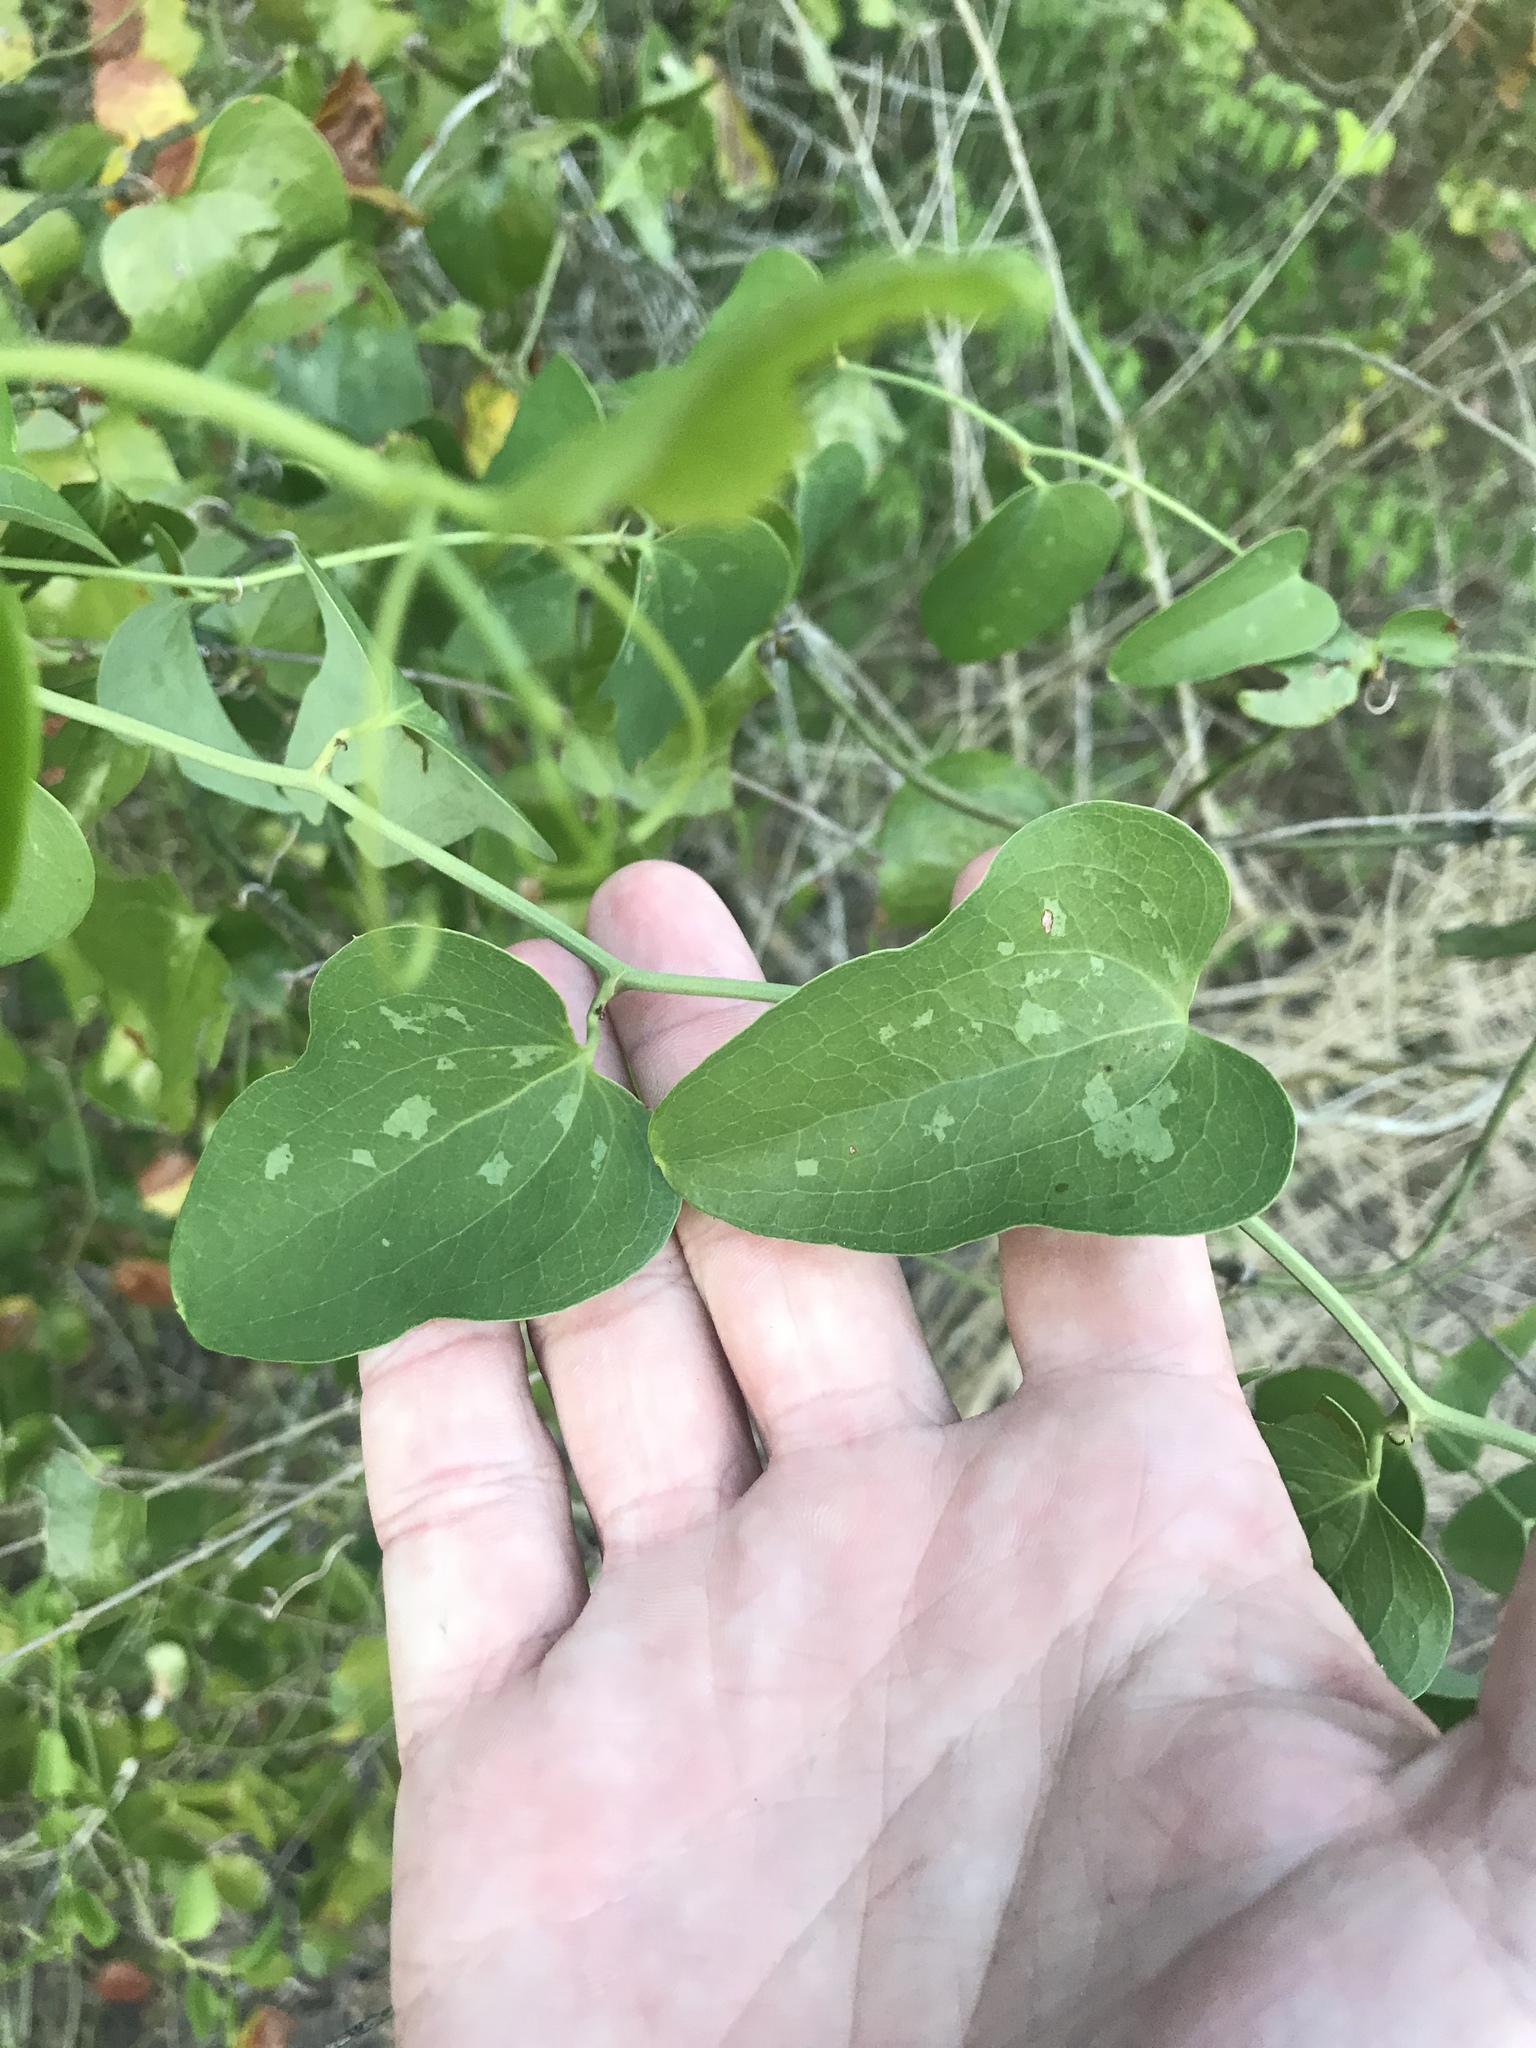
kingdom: Plantae
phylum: Tracheophyta
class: Liliopsida
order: Liliales
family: Smilacaceae
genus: Smilax
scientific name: Smilax bona-nox
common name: Catbrier
